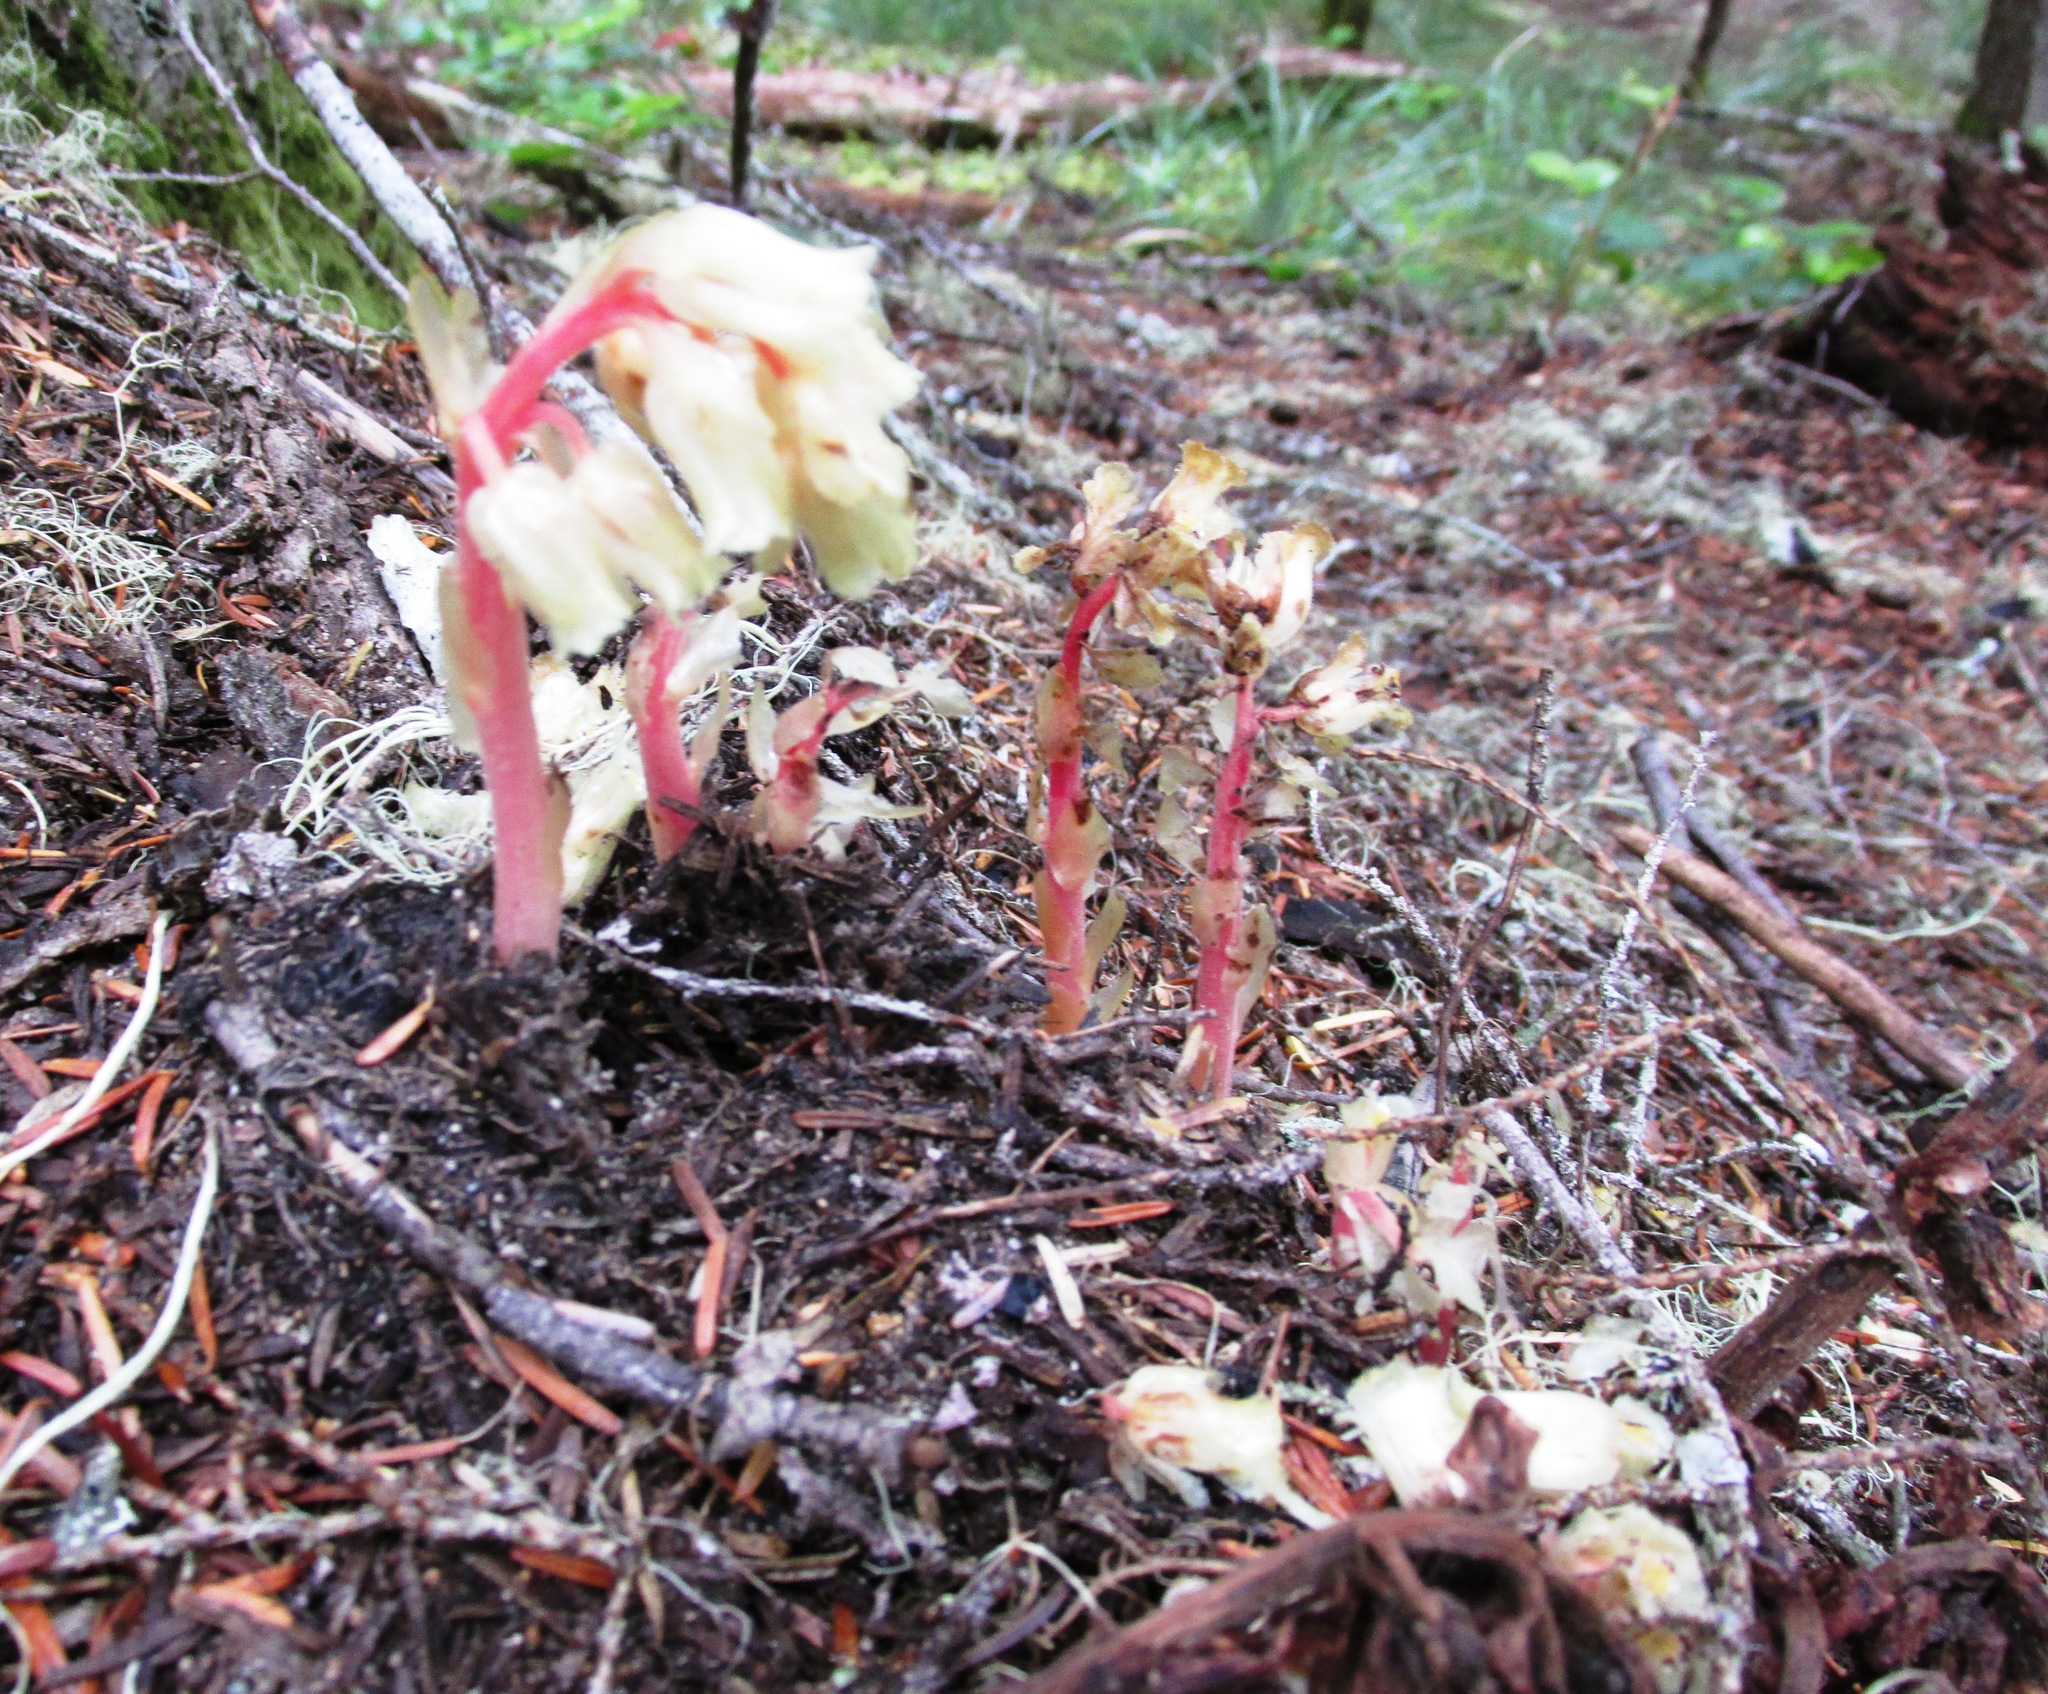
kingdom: Plantae
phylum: Tracheophyta
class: Magnoliopsida
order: Ericales
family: Ericaceae
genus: Hypopitys
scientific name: Hypopitys monotropa
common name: Yellow bird's-nest
